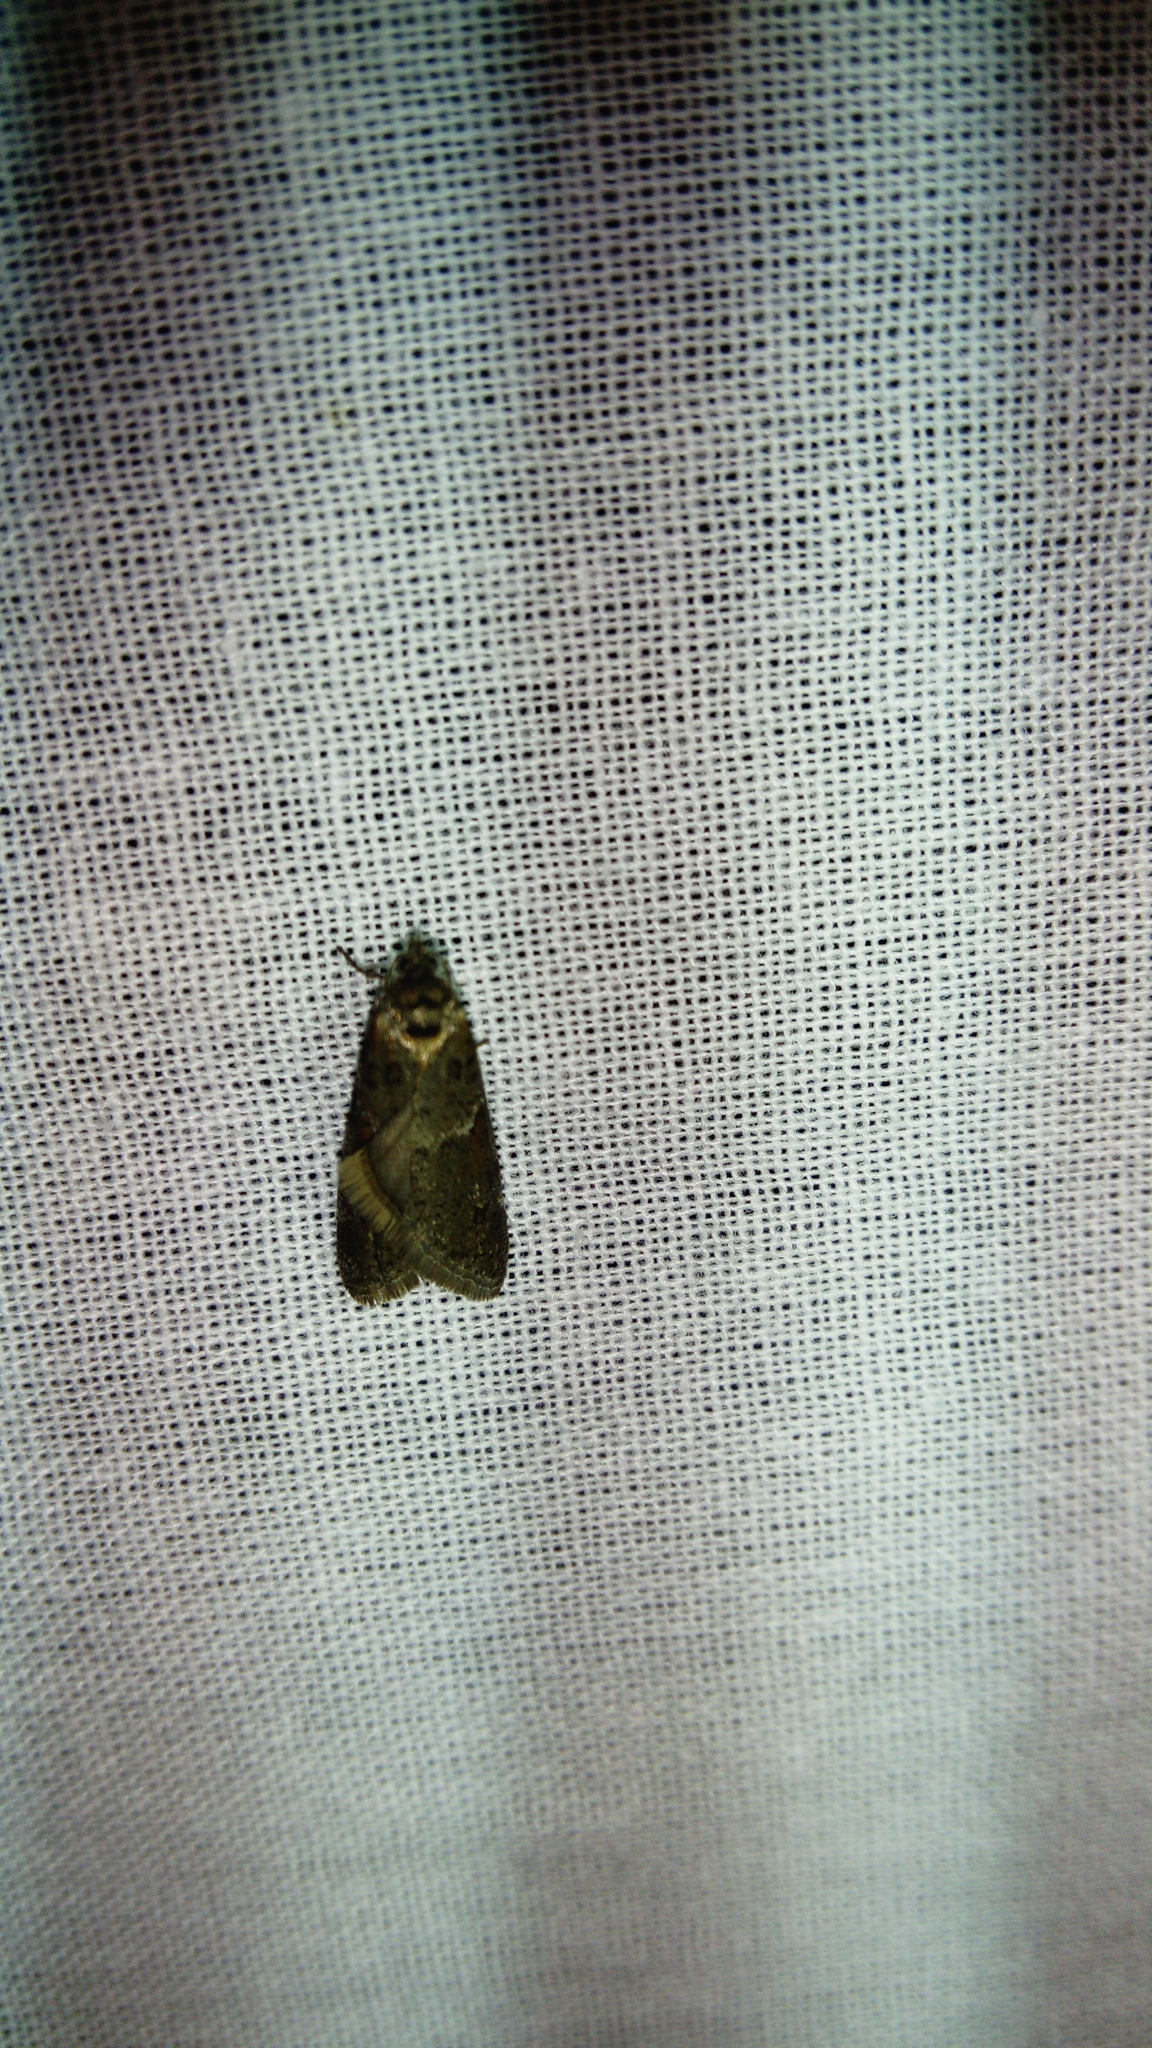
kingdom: Animalia
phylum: Arthropoda
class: Insecta
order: Lepidoptera
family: Tortricidae
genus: Tortricodes
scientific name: Tortricodes alternella
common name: Winter shade
